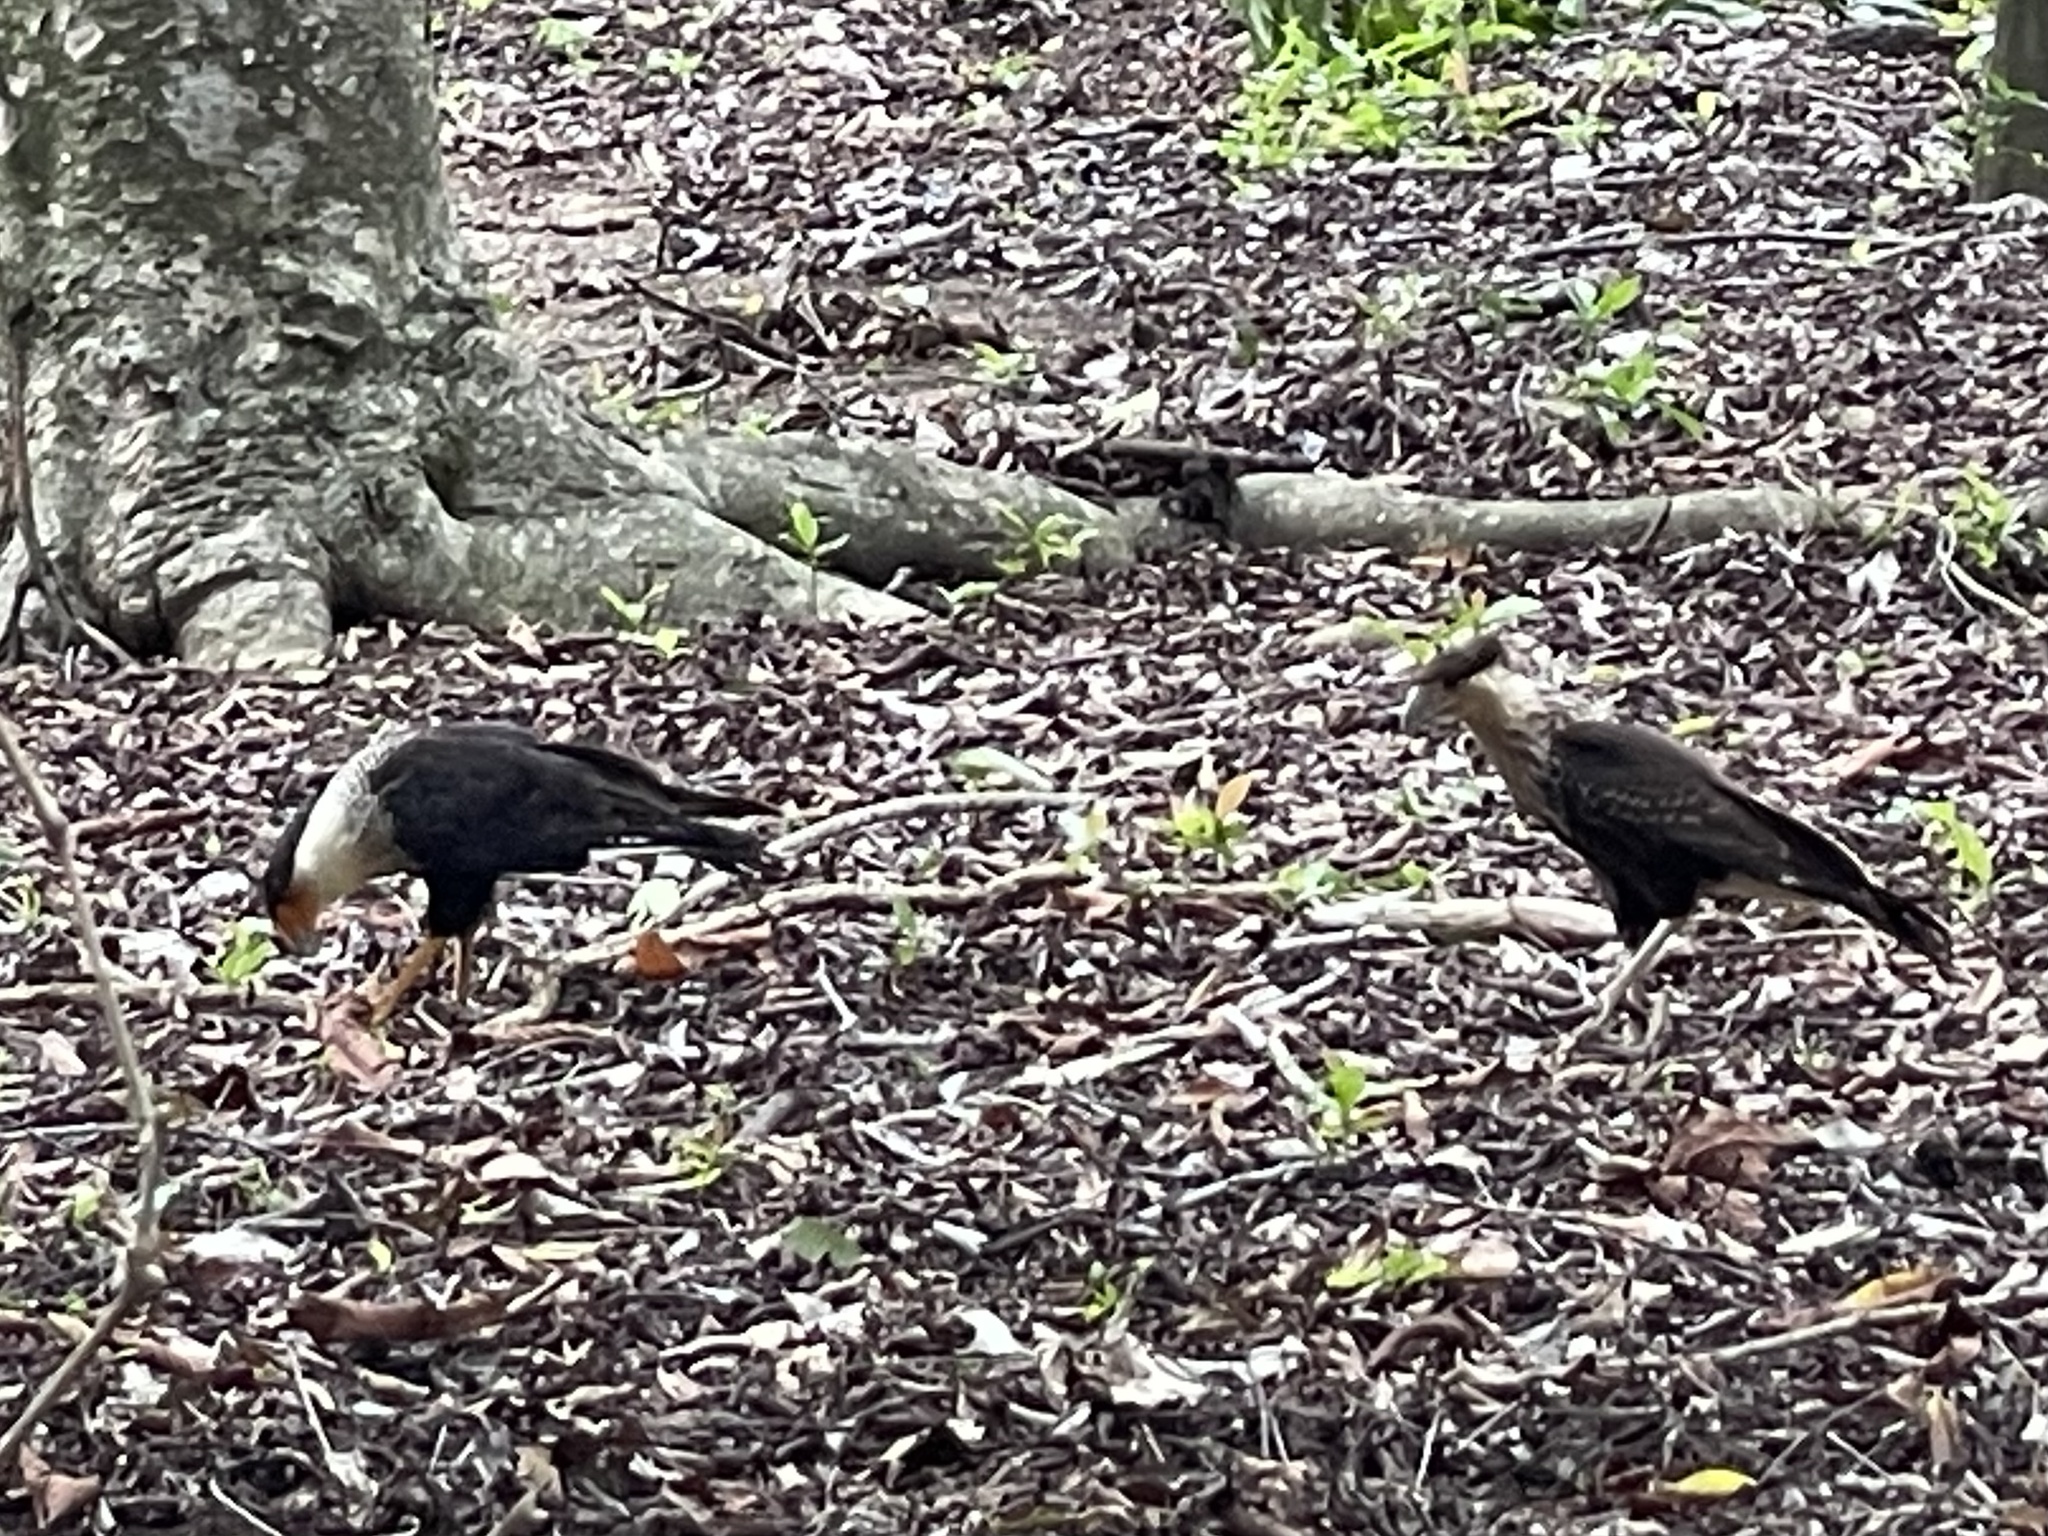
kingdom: Animalia
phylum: Chordata
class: Aves
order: Falconiformes
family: Falconidae
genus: Caracara
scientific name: Caracara plancus
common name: Southern caracara
